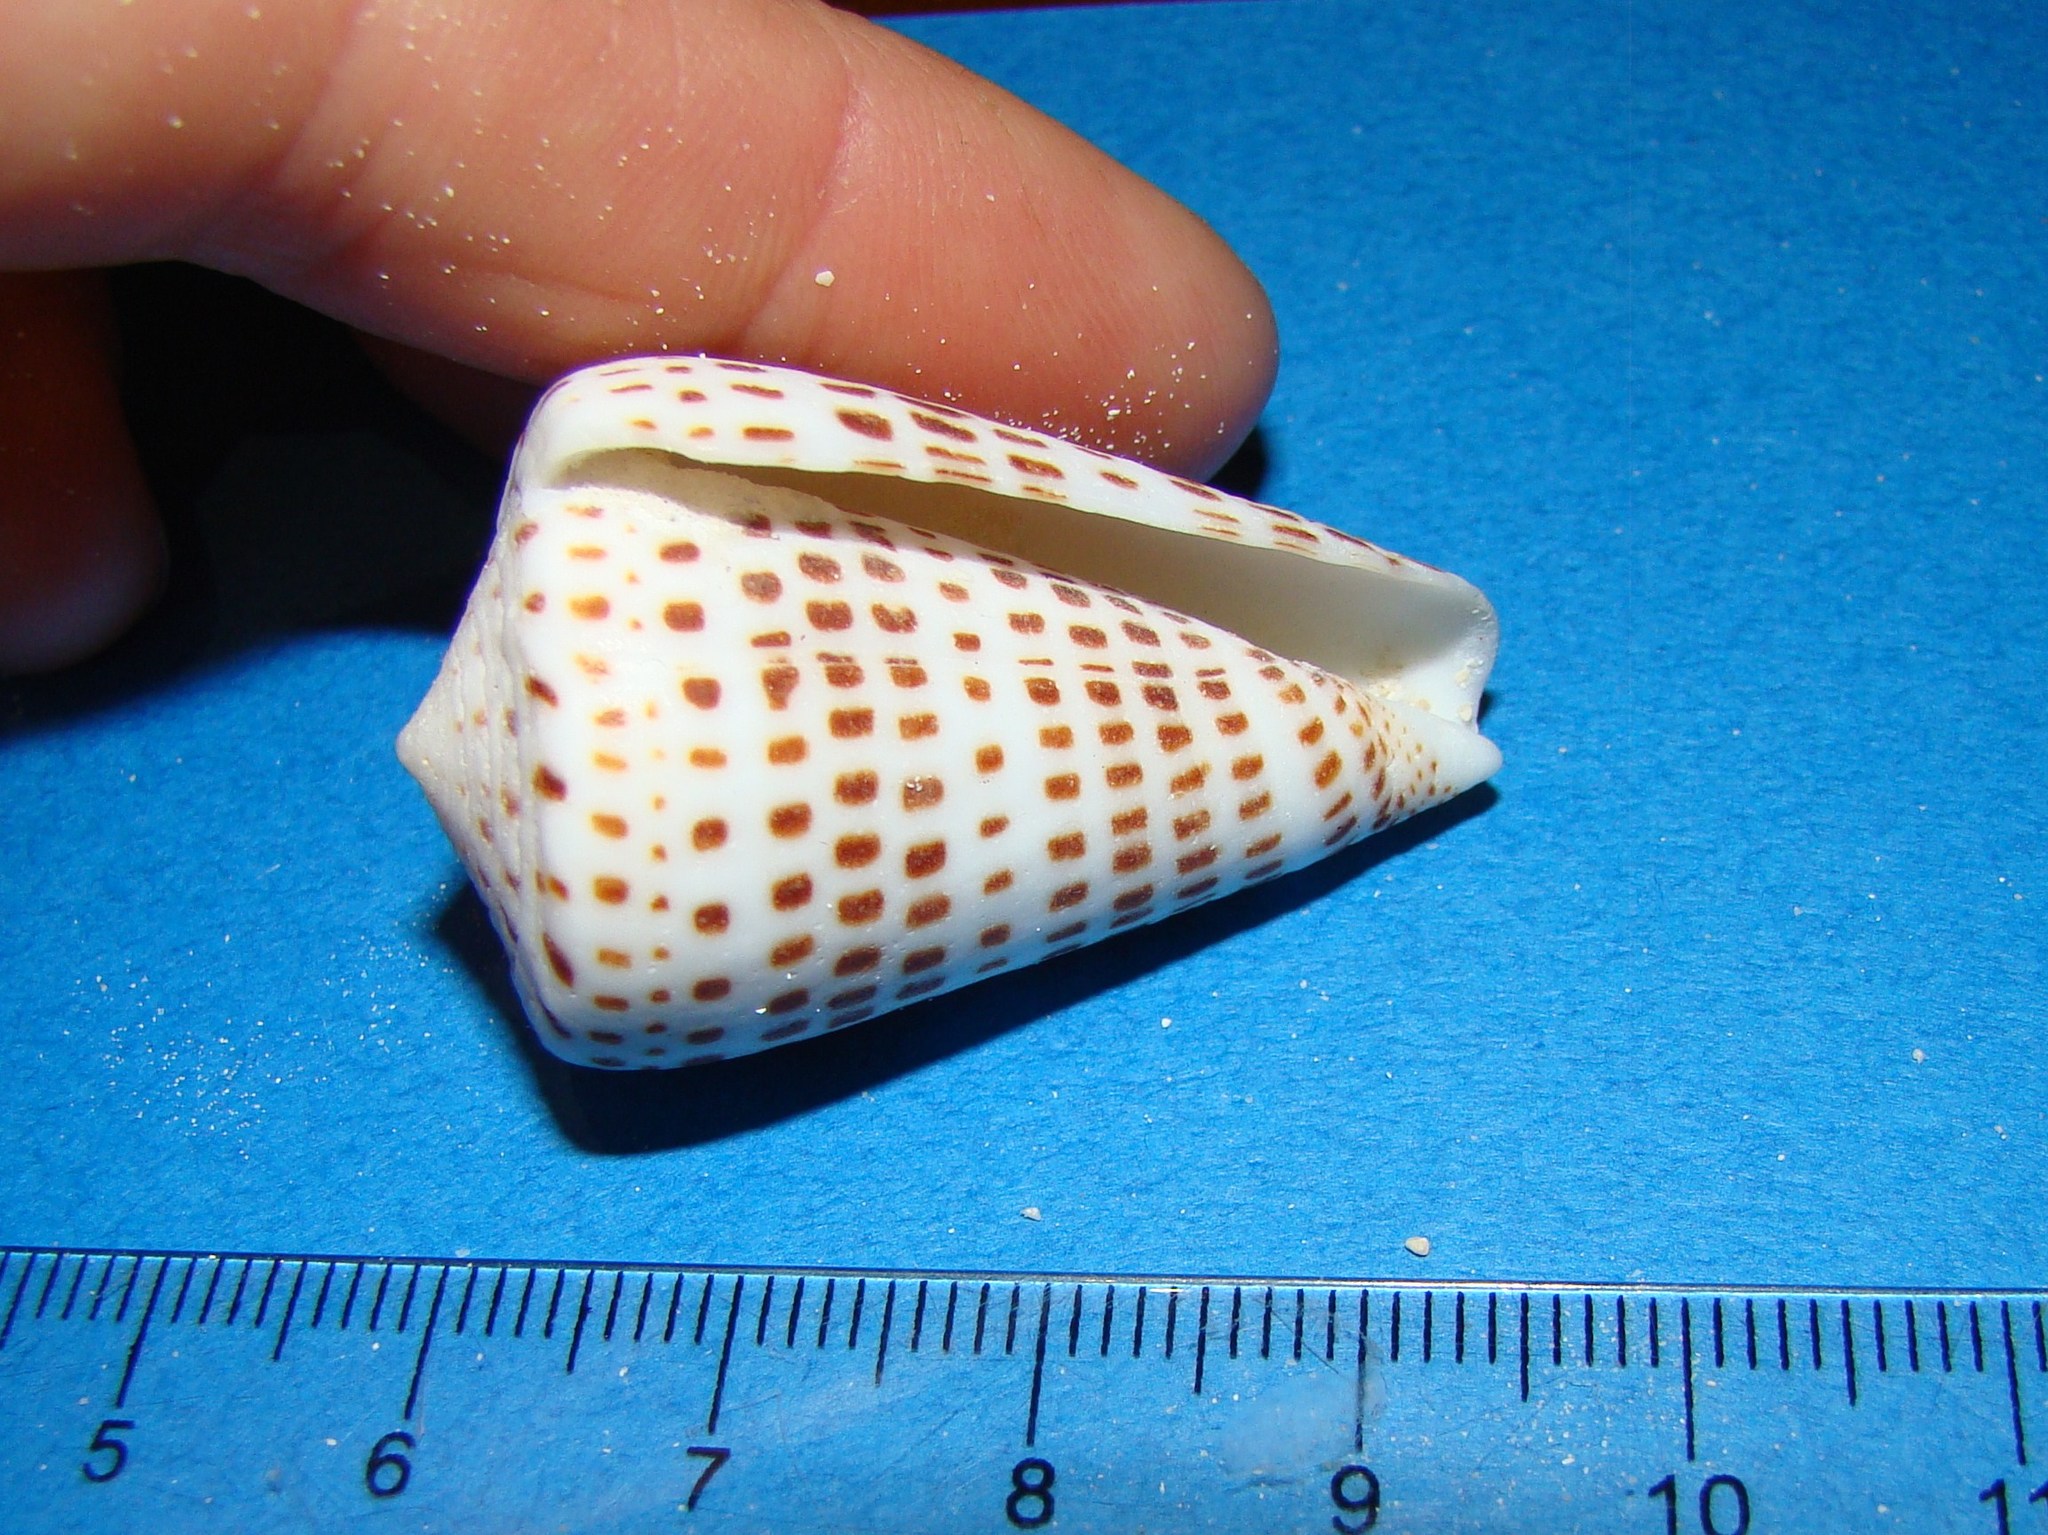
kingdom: Animalia
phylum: Mollusca
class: Gastropoda
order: Neogastropoda
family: Conidae
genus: Conus
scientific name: Conus eburneus
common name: Ivory cone
